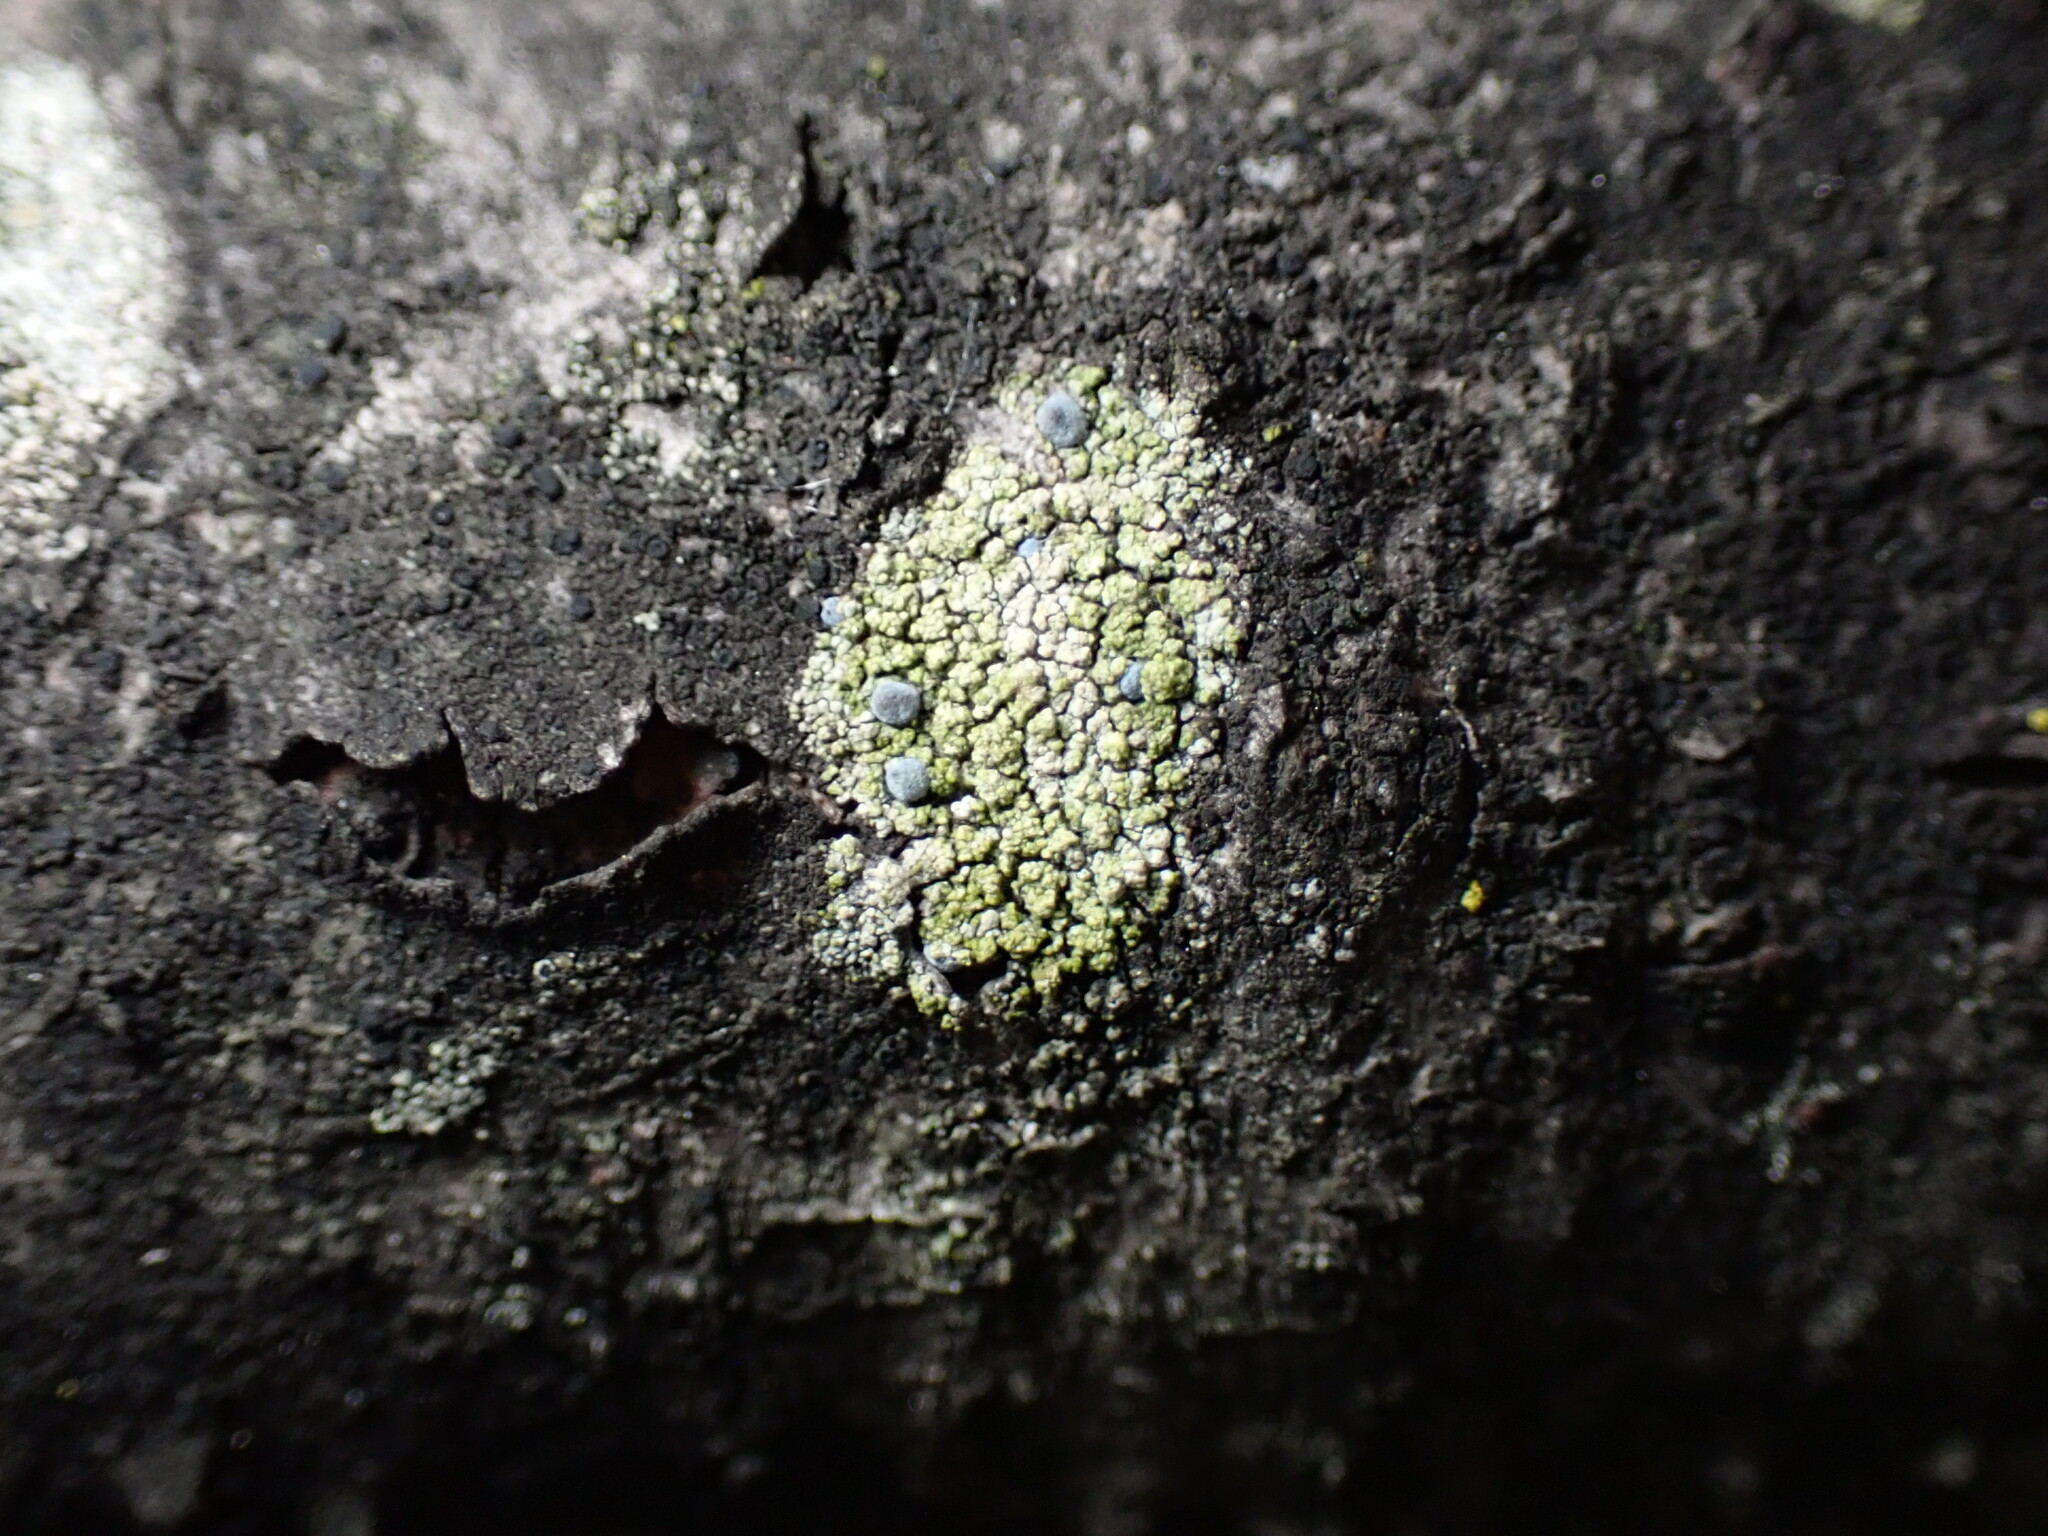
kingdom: Fungi
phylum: Ascomycota
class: Arthoniomycetes
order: Arthoniales
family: Chrysotrichaceae
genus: Chrysothrix
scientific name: Chrysothrix caesia
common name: Frosted comma lichen
